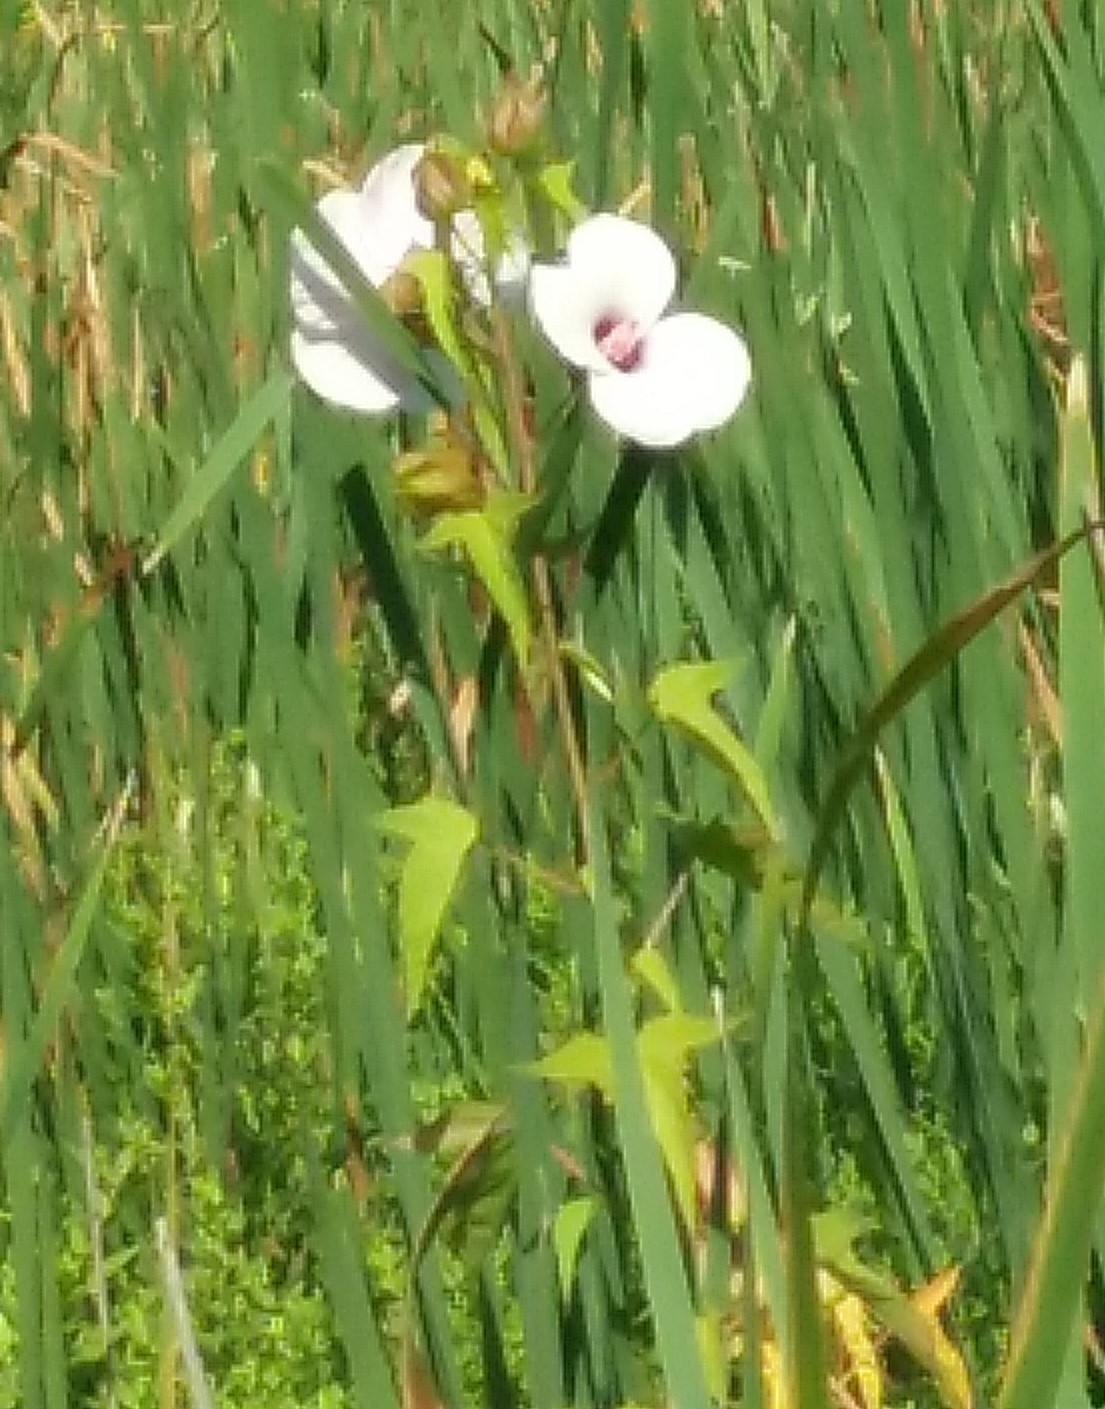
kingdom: Plantae
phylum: Tracheophyta
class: Magnoliopsida
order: Malvales
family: Malvaceae
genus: Hibiscus
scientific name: Hibiscus laevis
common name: Scarlet rose-mallow
